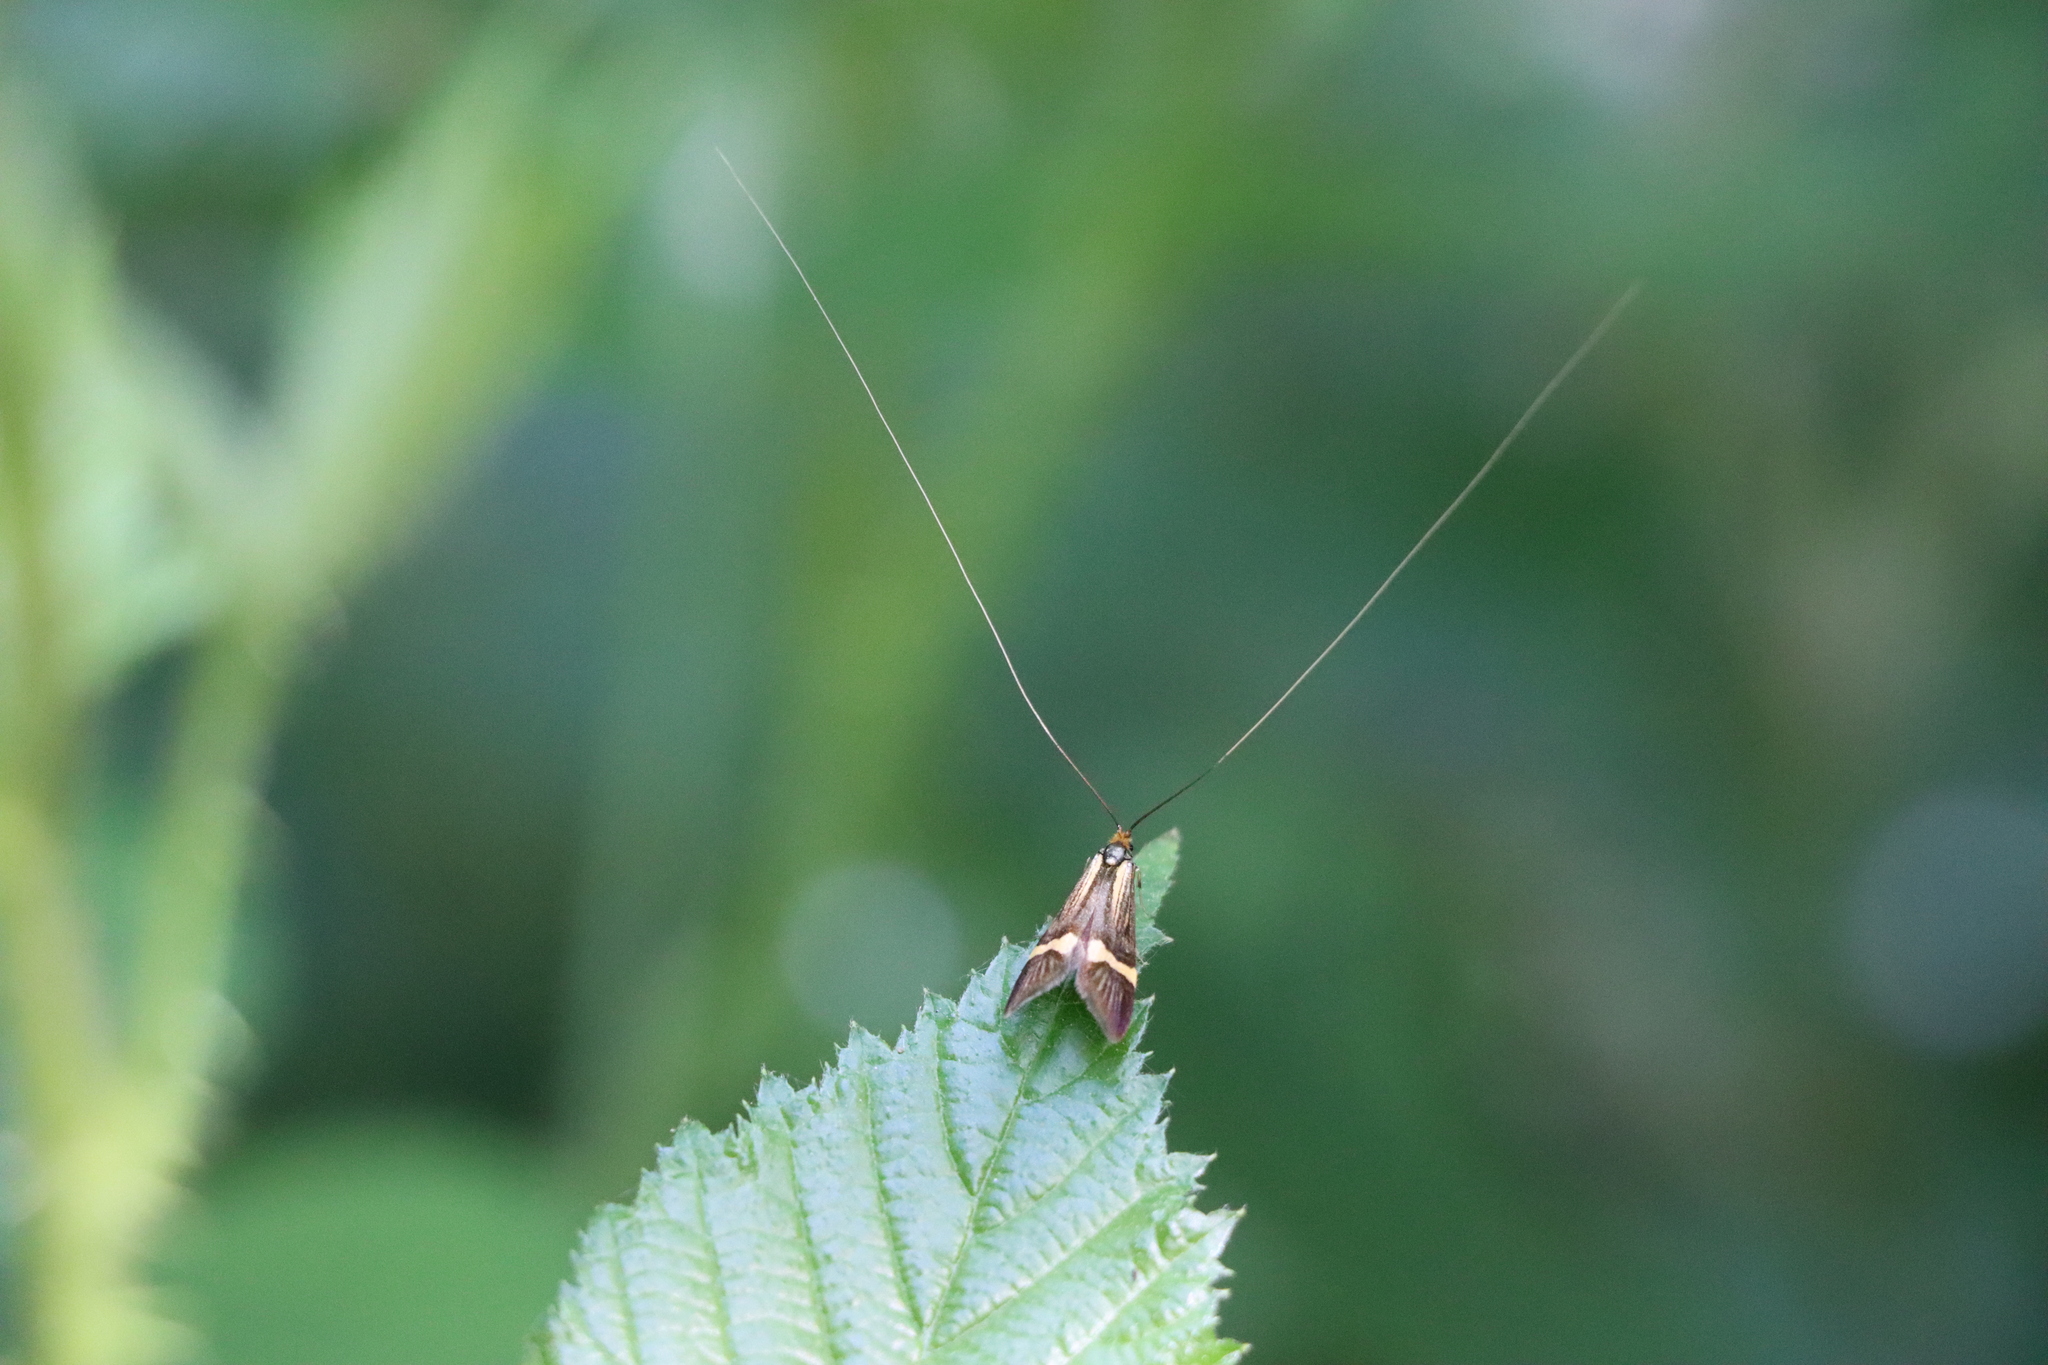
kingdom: Animalia
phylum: Arthropoda
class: Insecta
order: Lepidoptera
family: Adelidae
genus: Nemophora
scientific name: Nemophora degeerella
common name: Yellow-barred long-horn
